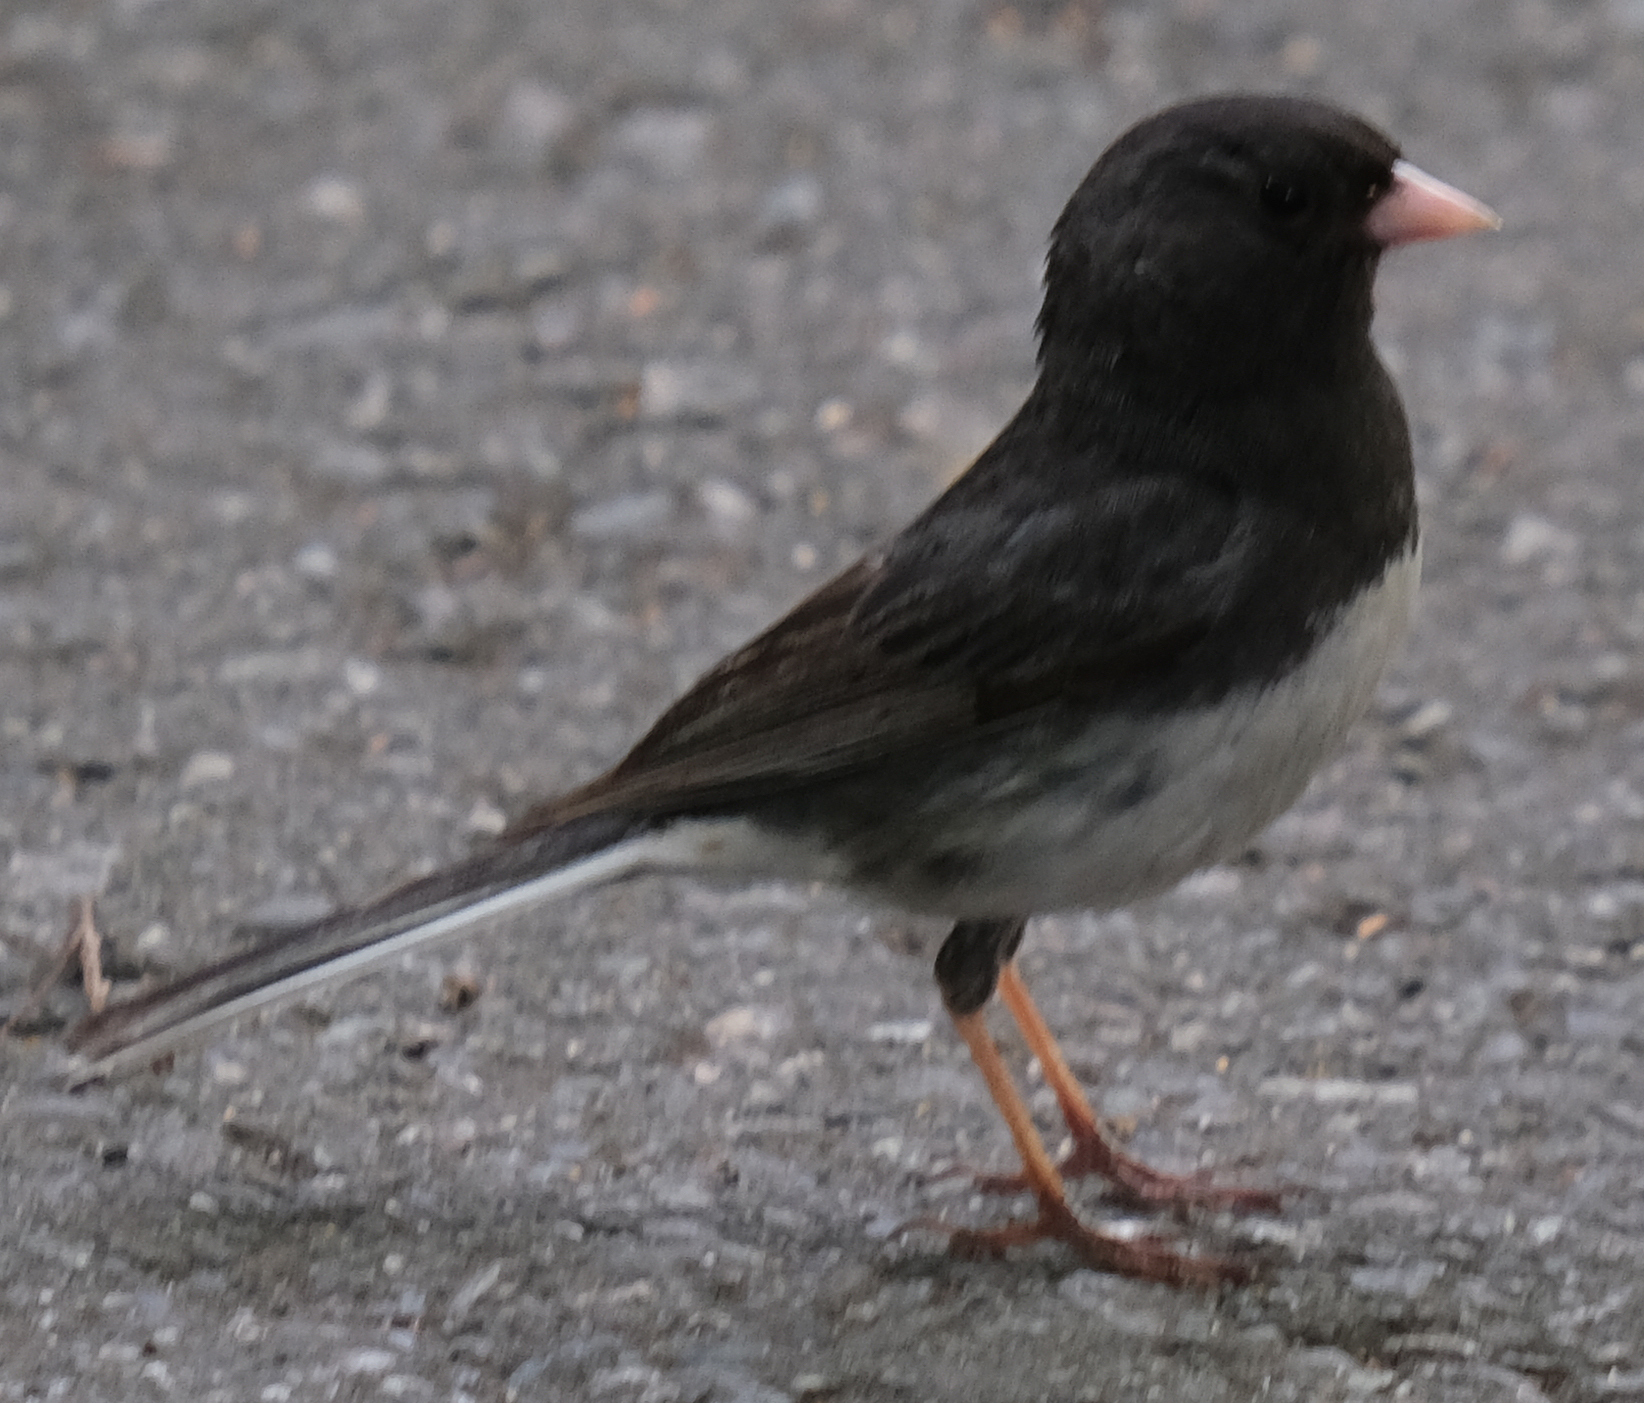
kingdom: Animalia
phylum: Chordata
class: Aves
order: Passeriformes
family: Passerellidae
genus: Junco
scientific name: Junco hyemalis
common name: Dark-eyed junco
